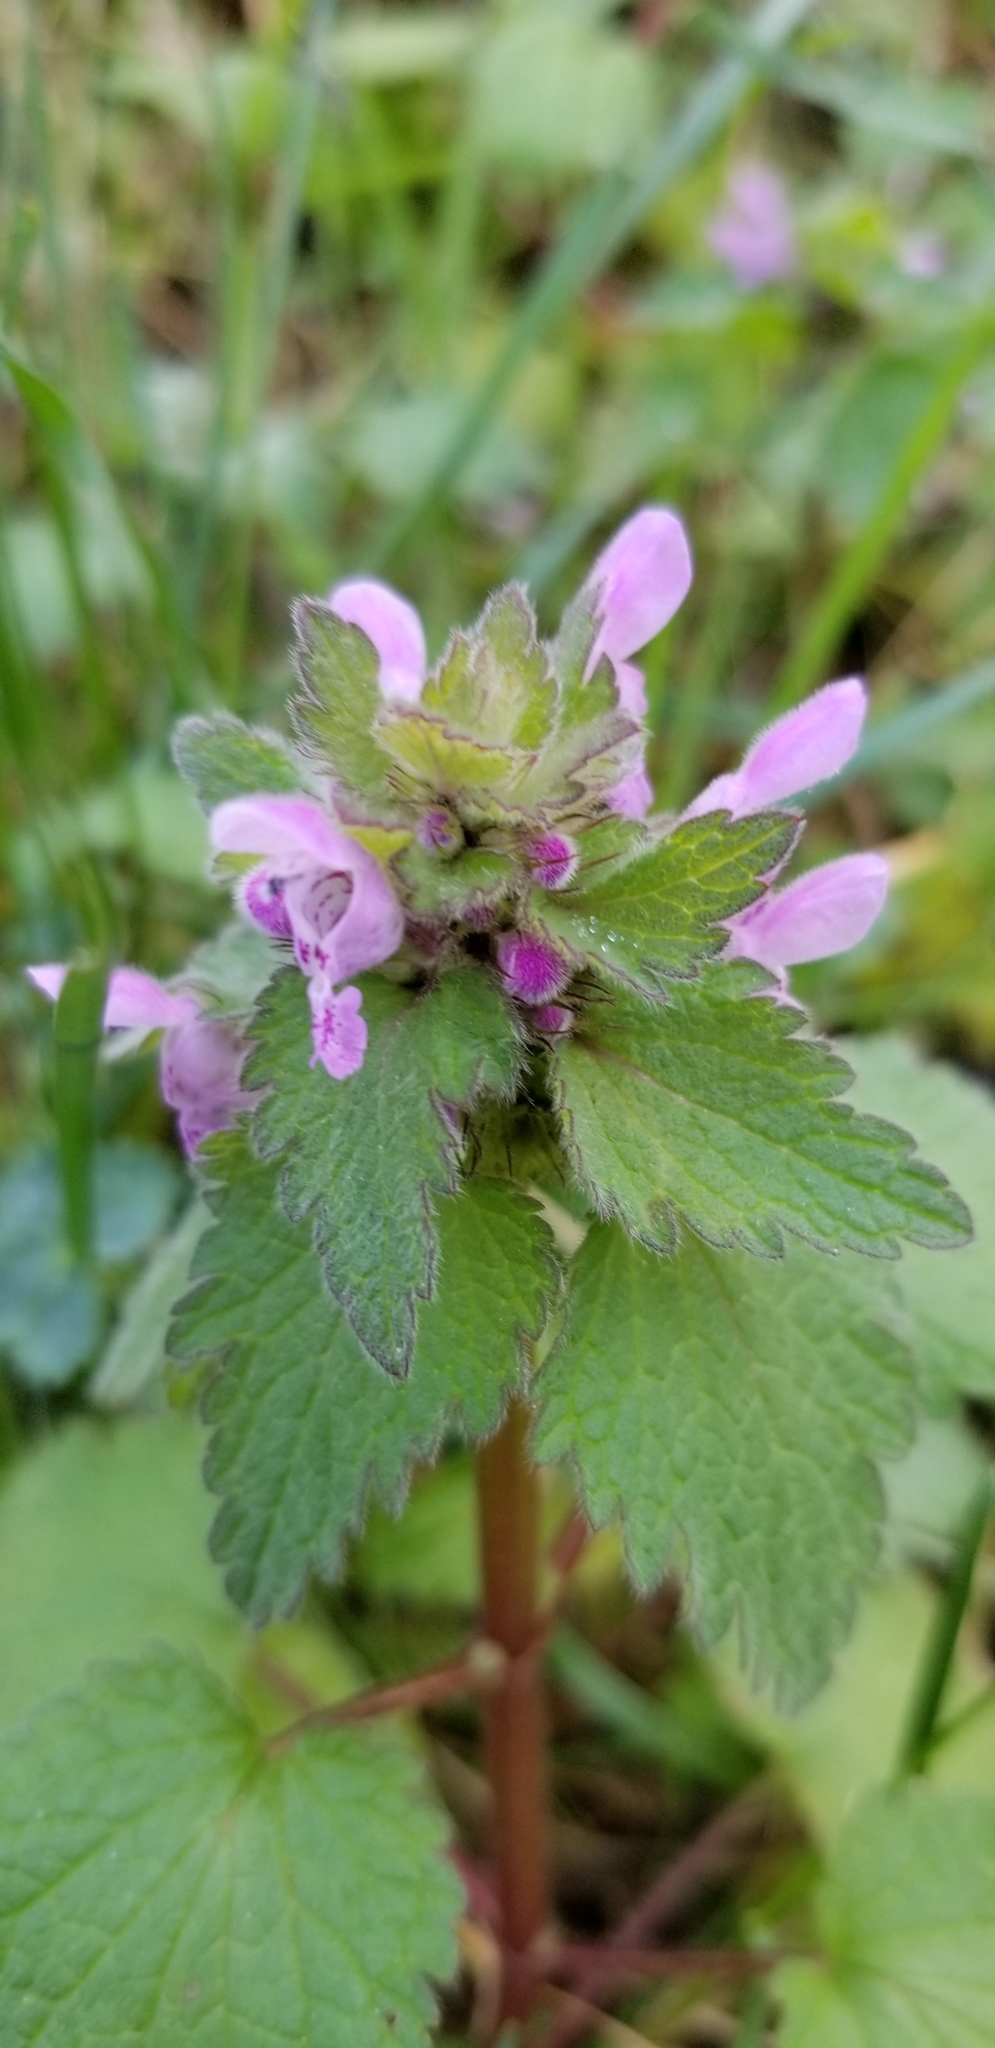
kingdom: Plantae
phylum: Tracheophyta
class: Magnoliopsida
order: Lamiales
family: Lamiaceae
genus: Lamium
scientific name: Lamium purpureum
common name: Red dead-nettle
